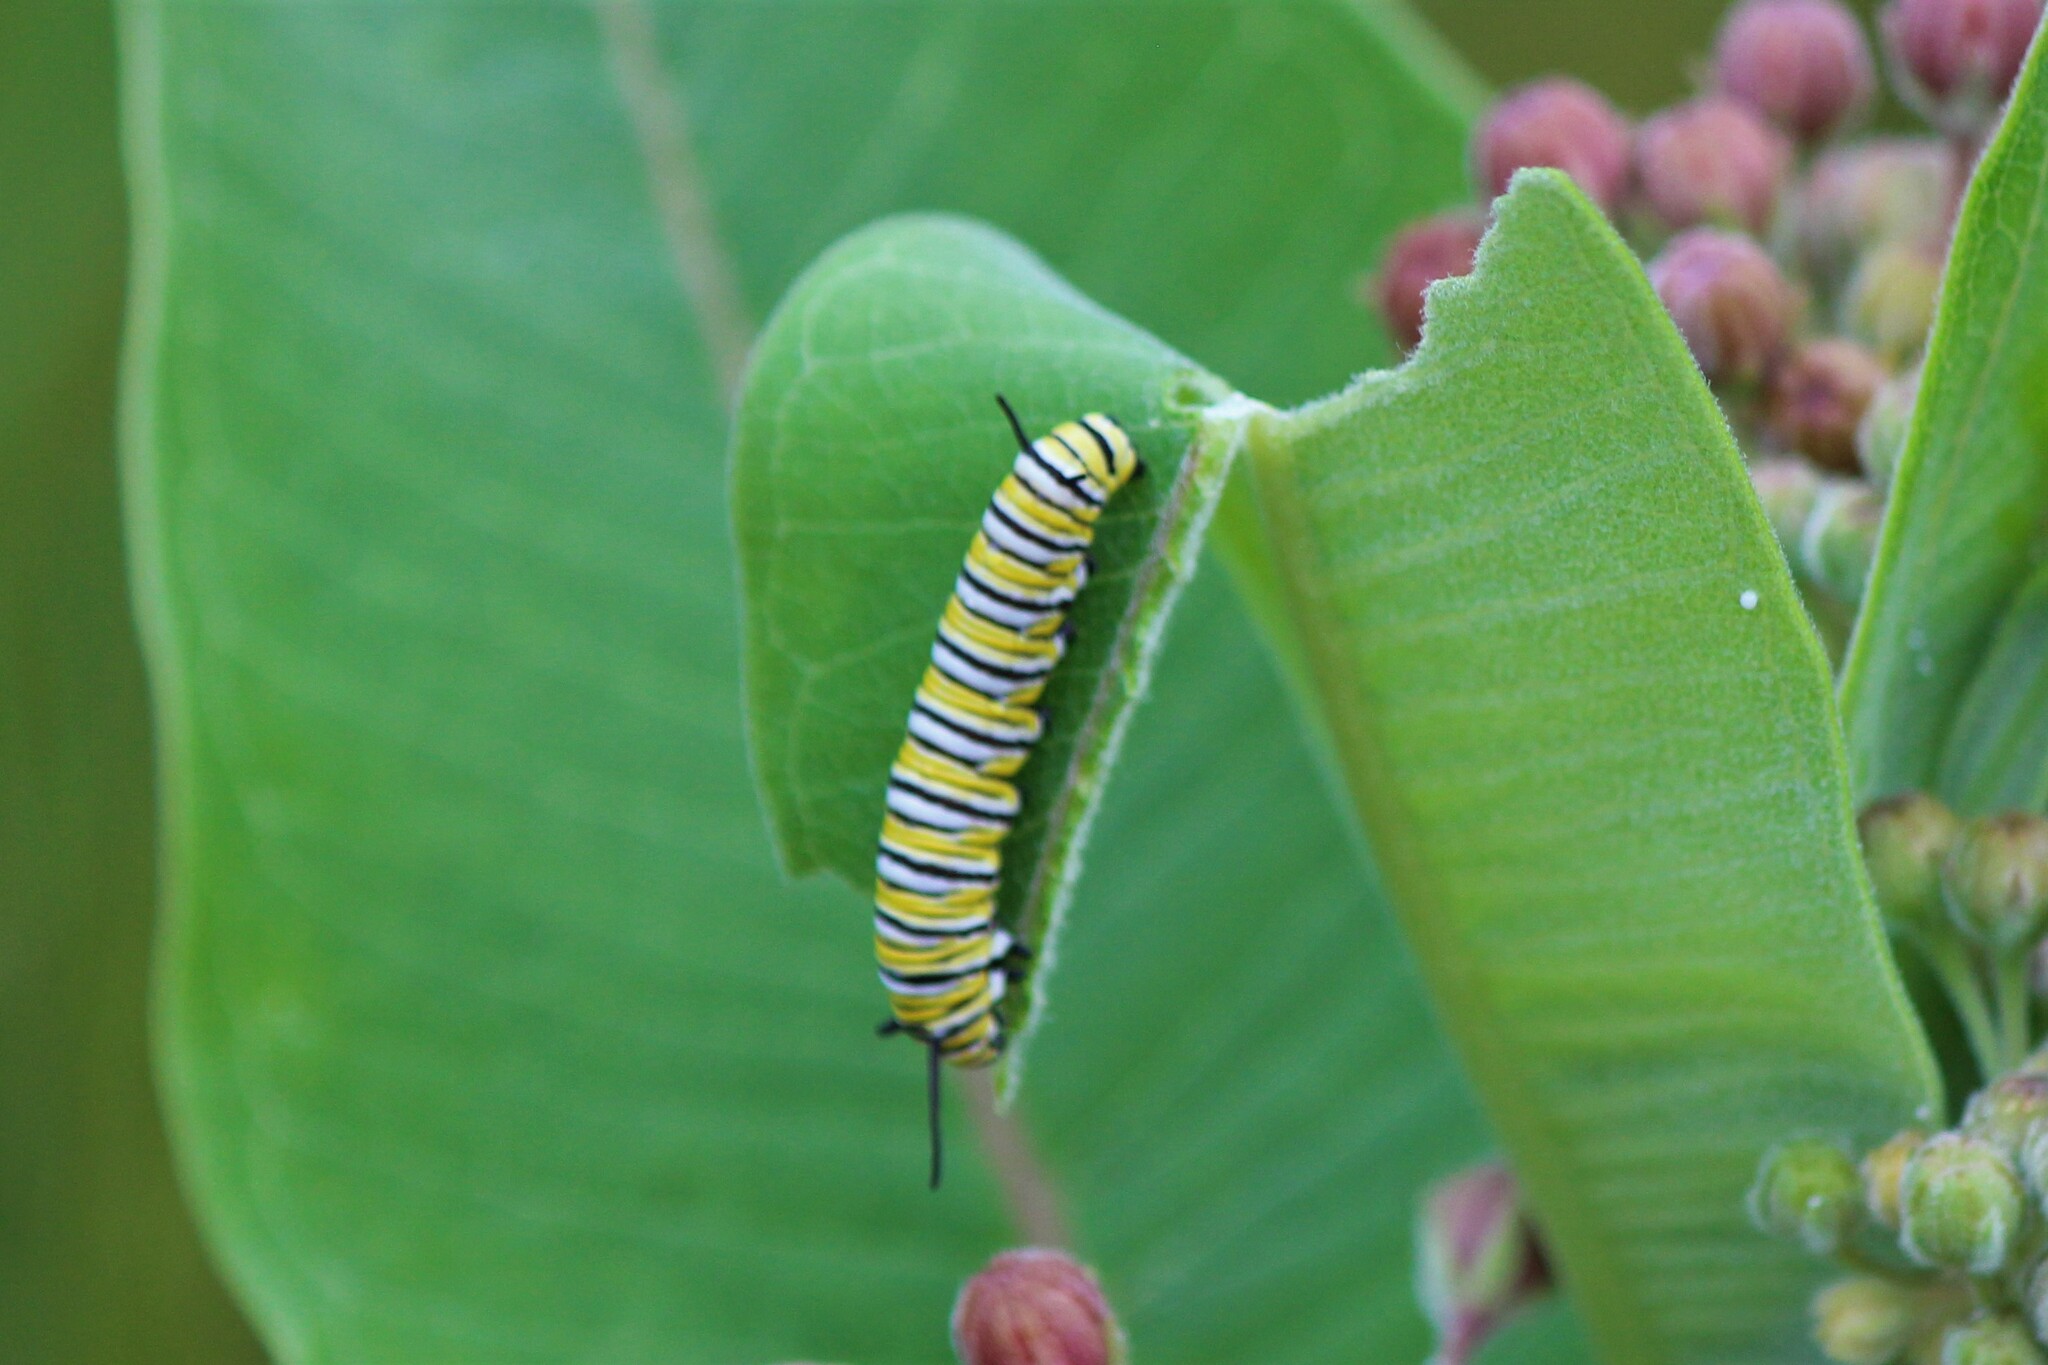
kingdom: Animalia
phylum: Arthropoda
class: Insecta
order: Lepidoptera
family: Nymphalidae
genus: Danaus
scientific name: Danaus plexippus
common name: Monarch
